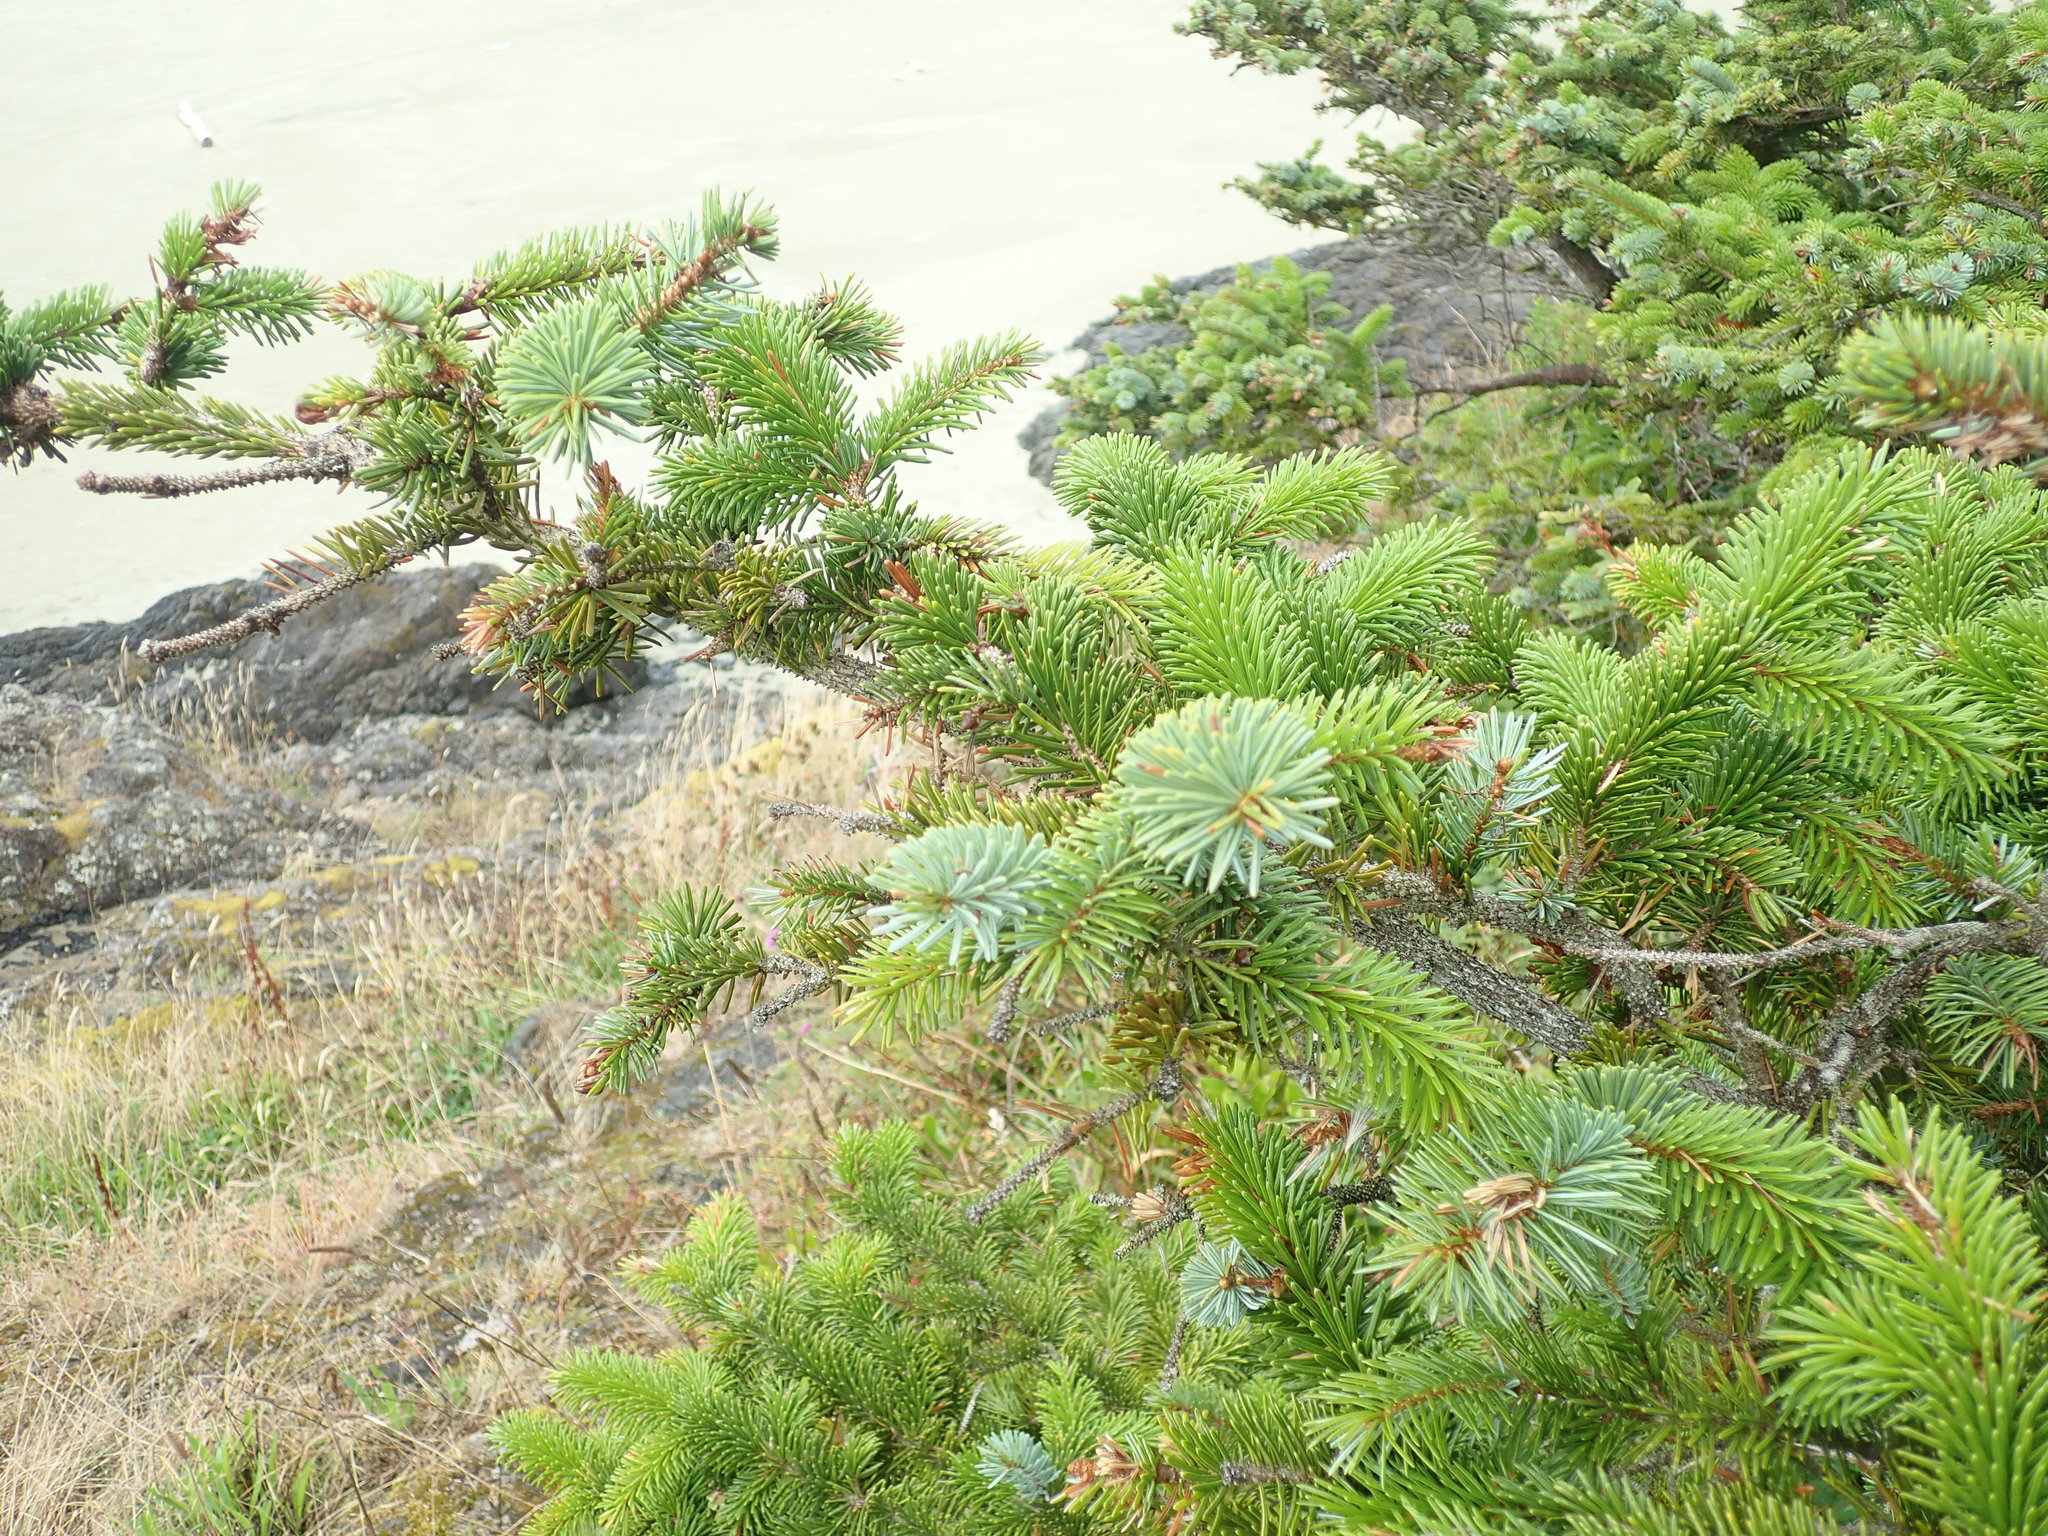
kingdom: Plantae
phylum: Tracheophyta
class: Pinopsida
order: Pinales
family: Pinaceae
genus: Picea
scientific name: Picea sitchensis
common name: Sitka spruce
